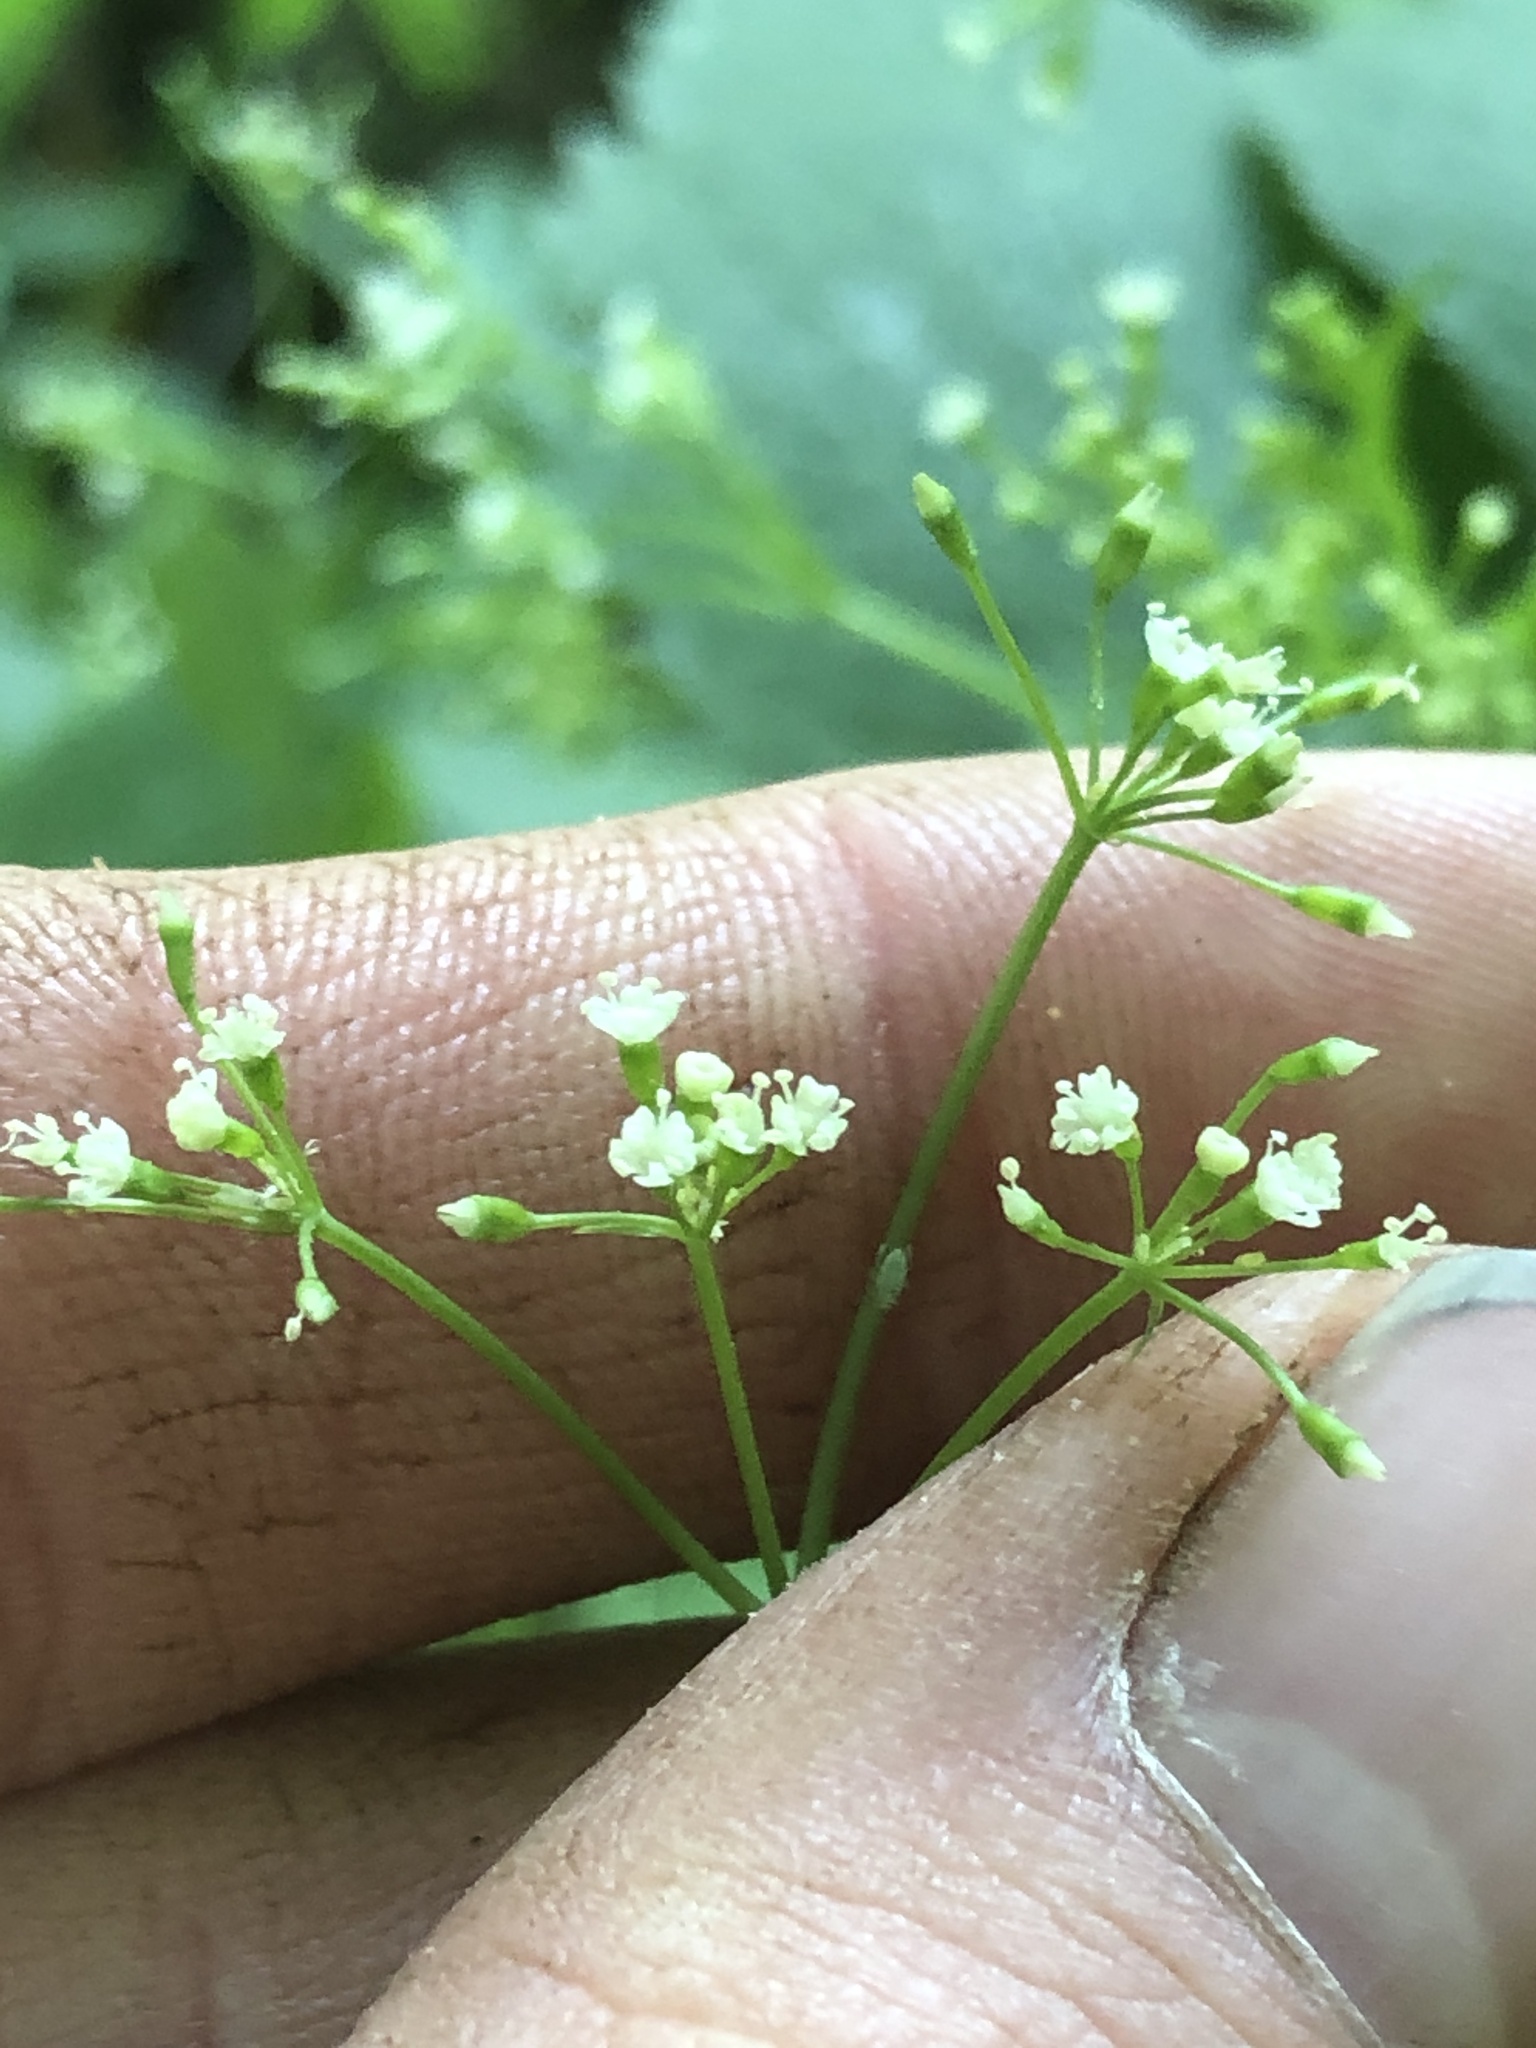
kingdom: Plantae
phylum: Tracheophyta
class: Magnoliopsida
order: Apiales
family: Apiaceae
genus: Cryptotaenia
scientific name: Cryptotaenia canadensis
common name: Honewort
